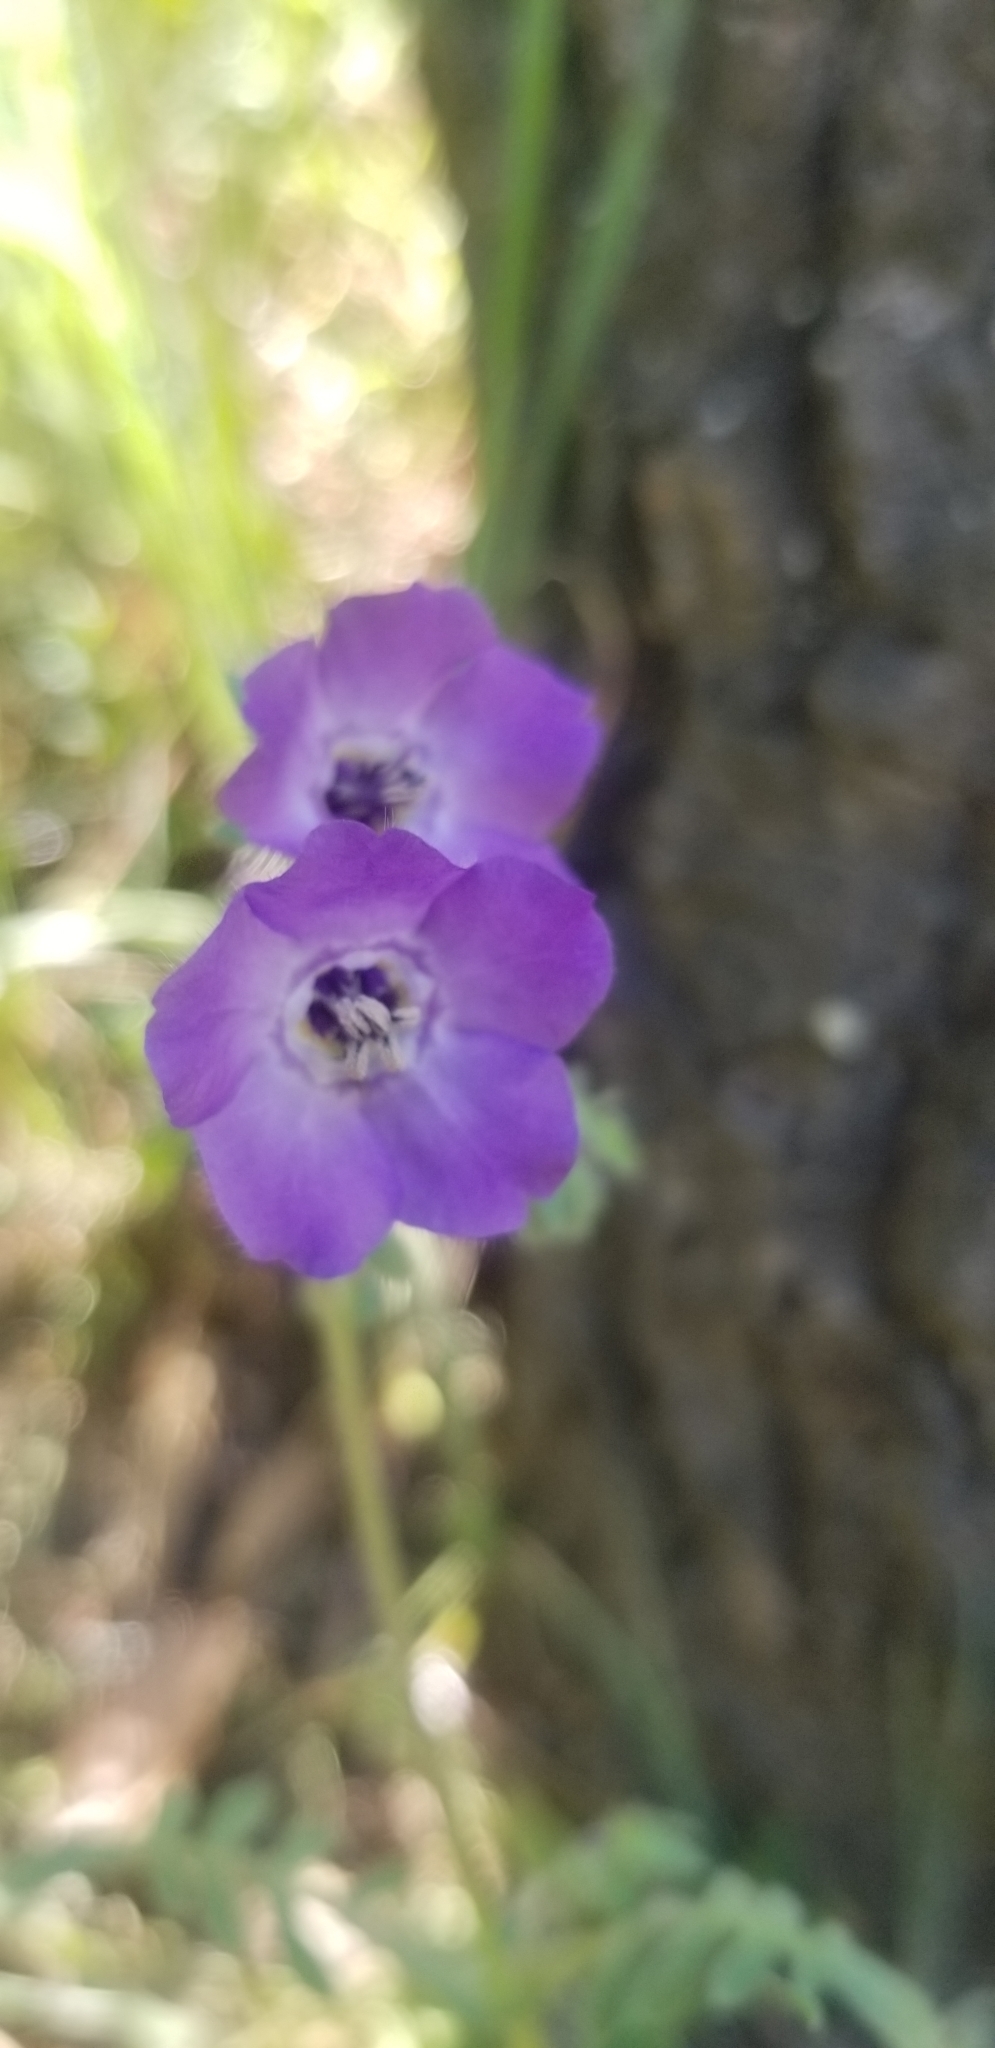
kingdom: Plantae
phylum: Tracheophyta
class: Magnoliopsida
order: Boraginales
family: Hydrophyllaceae
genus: Pholistoma
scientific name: Pholistoma auritum
